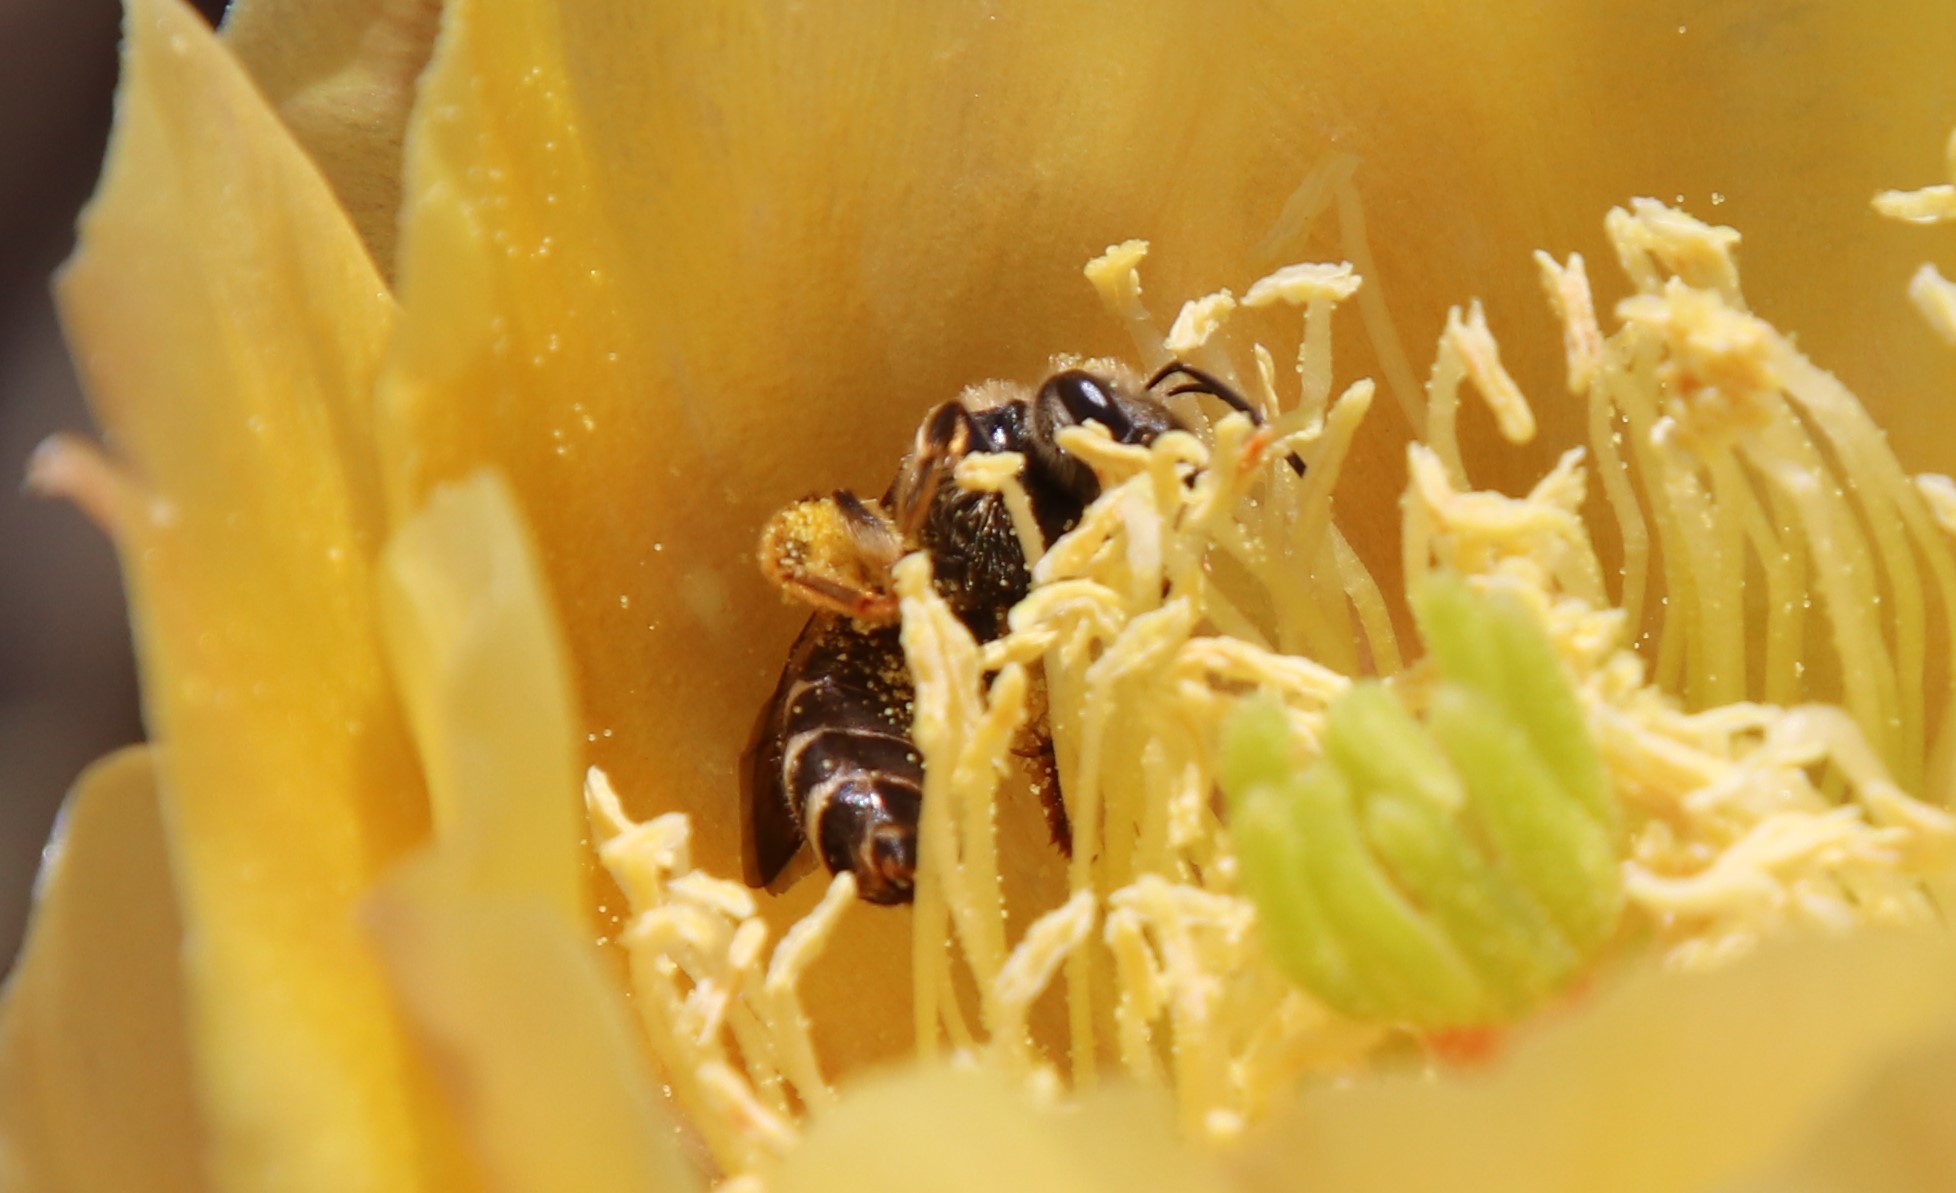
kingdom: Animalia
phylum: Arthropoda
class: Insecta
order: Hymenoptera
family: Halictidae
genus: Halictus
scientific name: Halictus farinosus
